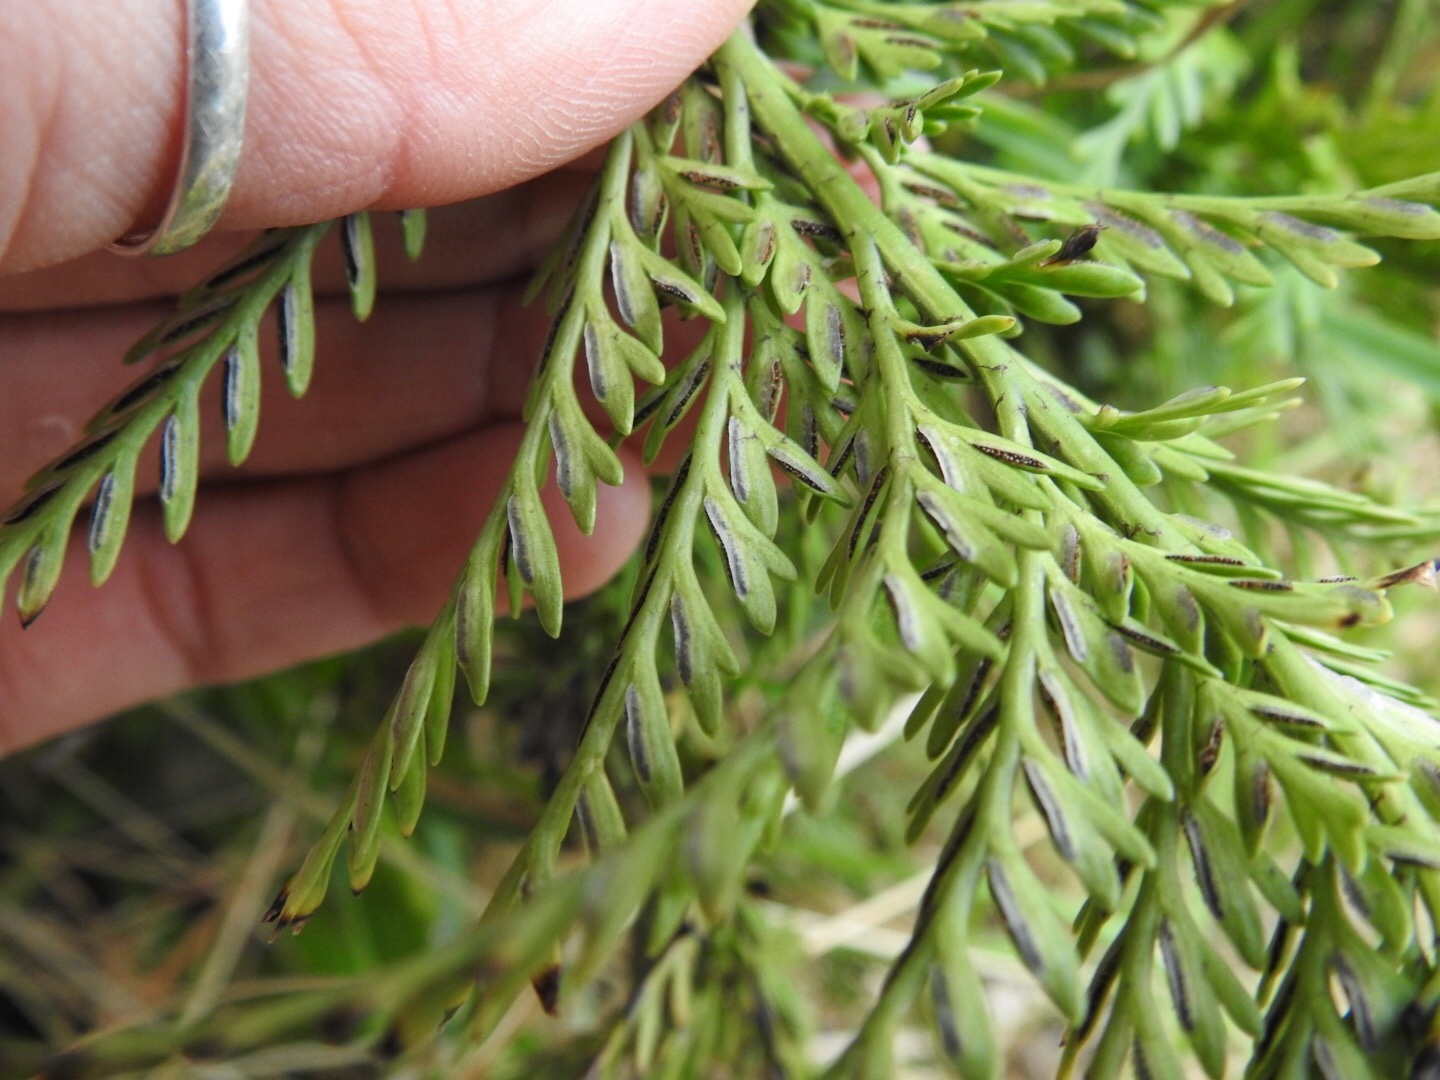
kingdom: Plantae
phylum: Tracheophyta
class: Polypodiopsida
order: Polypodiales
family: Aspleniaceae
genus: Asplenium
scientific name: Asplenium appendiculatum
